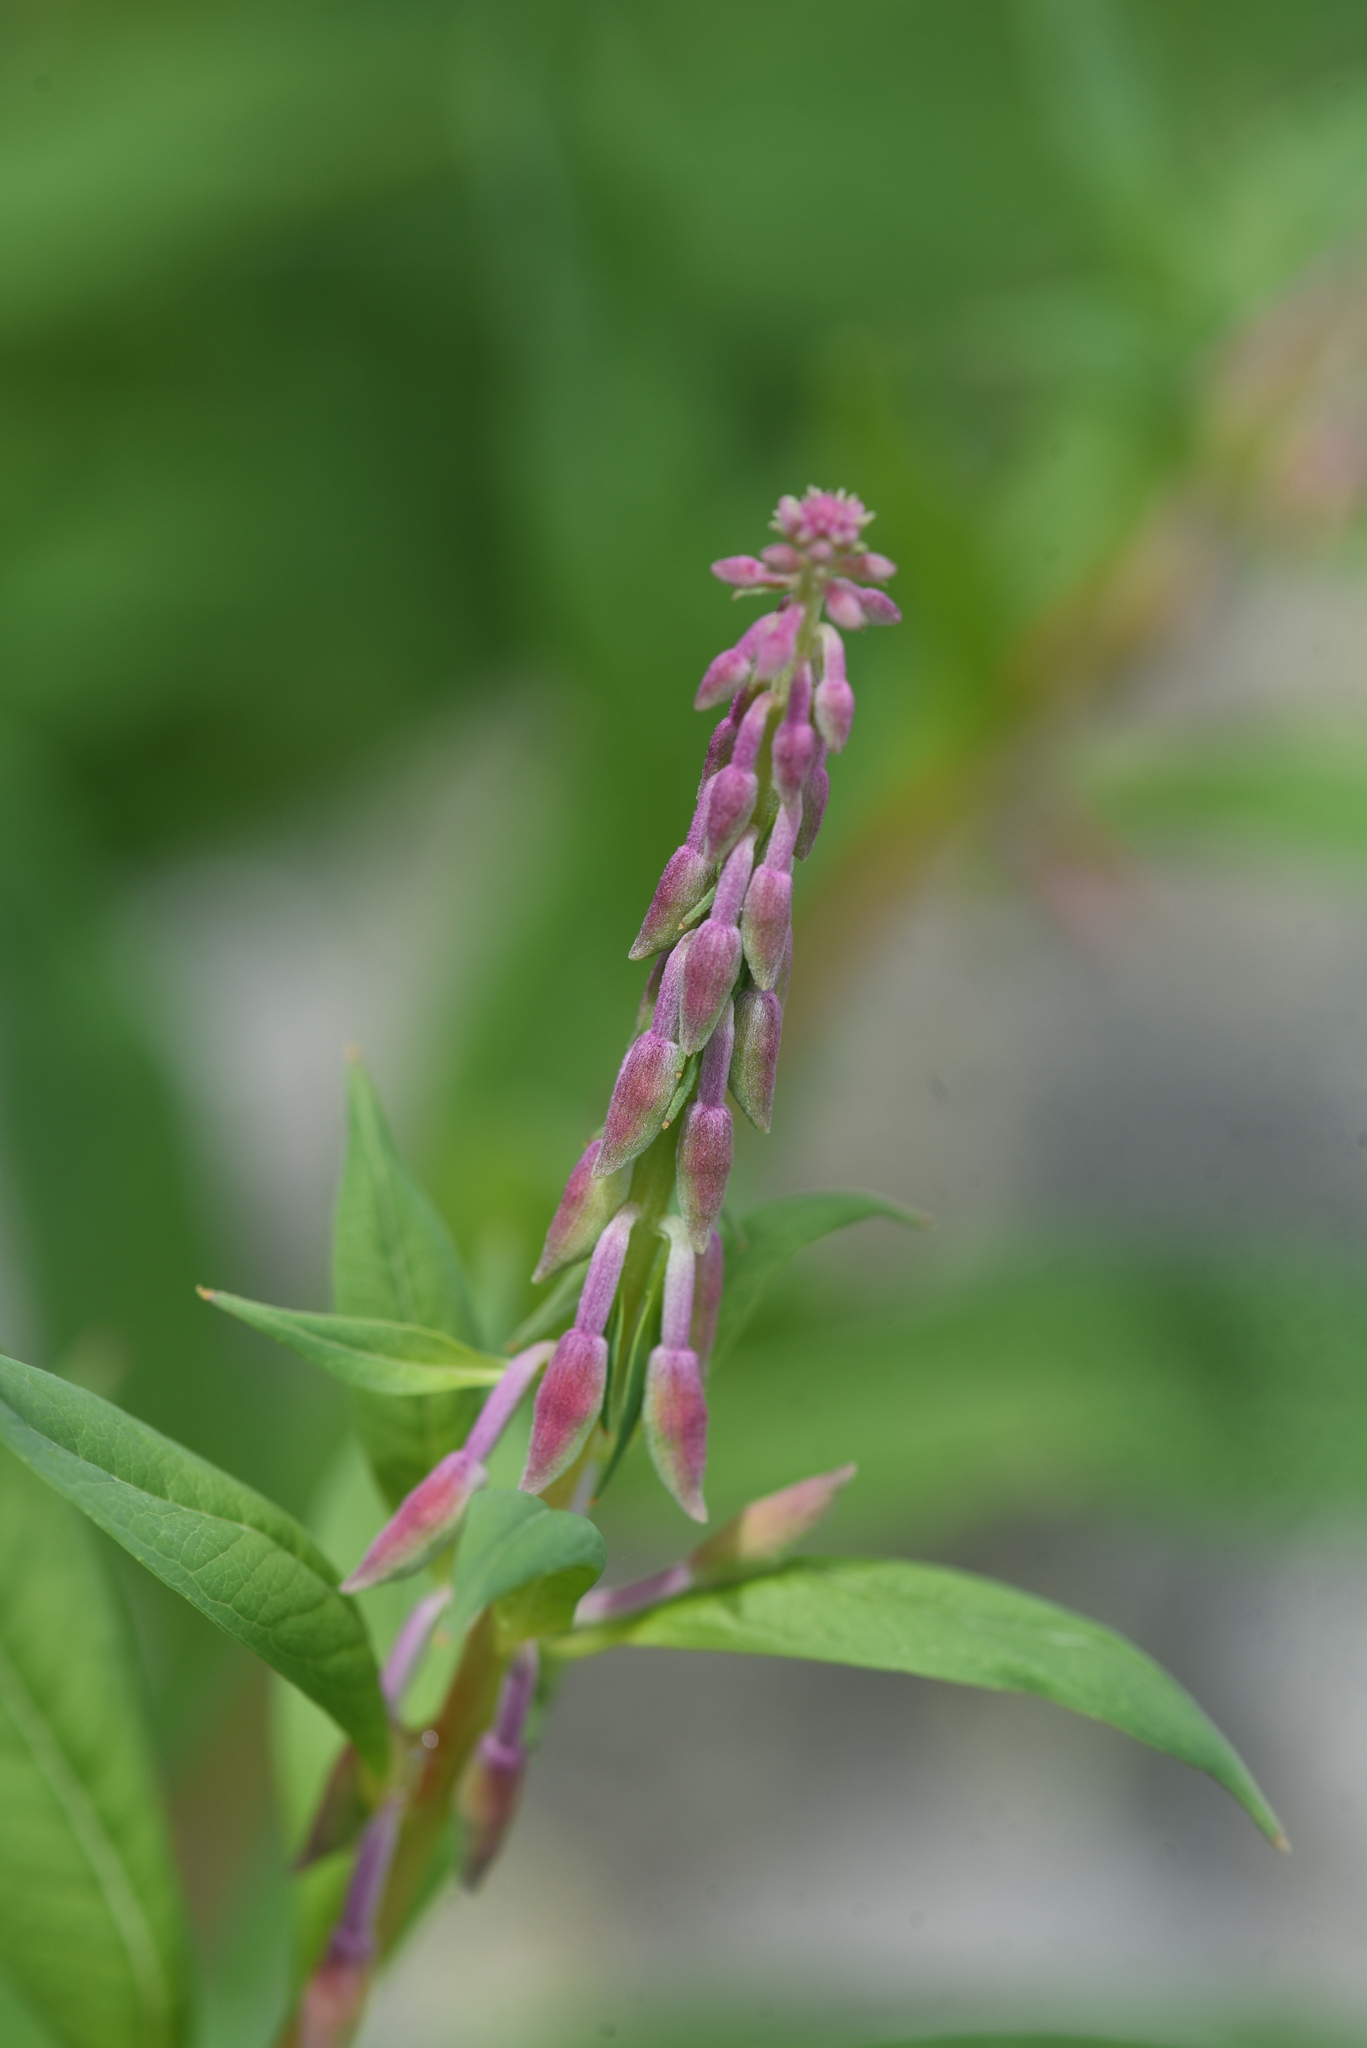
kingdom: Plantae
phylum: Tracheophyta
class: Magnoliopsida
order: Myrtales
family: Onagraceae
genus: Chamaenerion
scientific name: Chamaenerion angustifolium
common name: Fireweed
